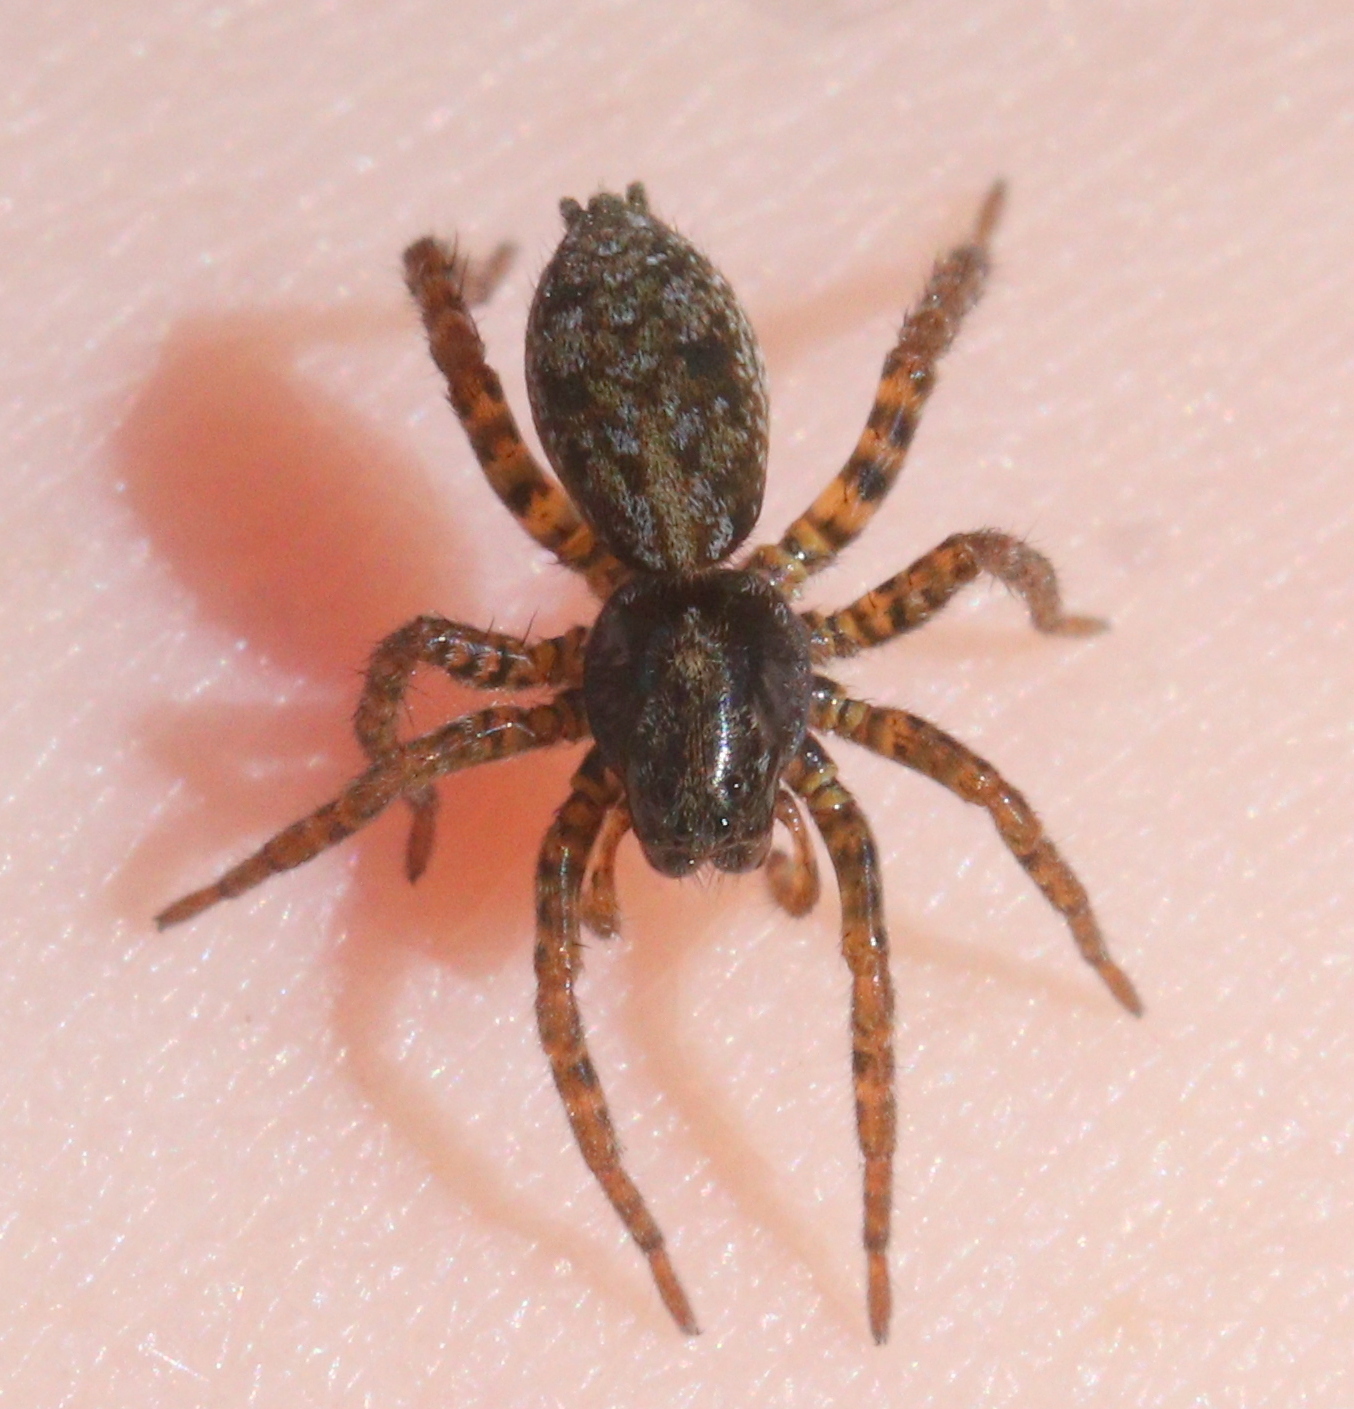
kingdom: Animalia
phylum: Arthropoda
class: Arachnida
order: Araneae
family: Lycosidae
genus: Arctosa
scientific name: Arctosa leopardus
